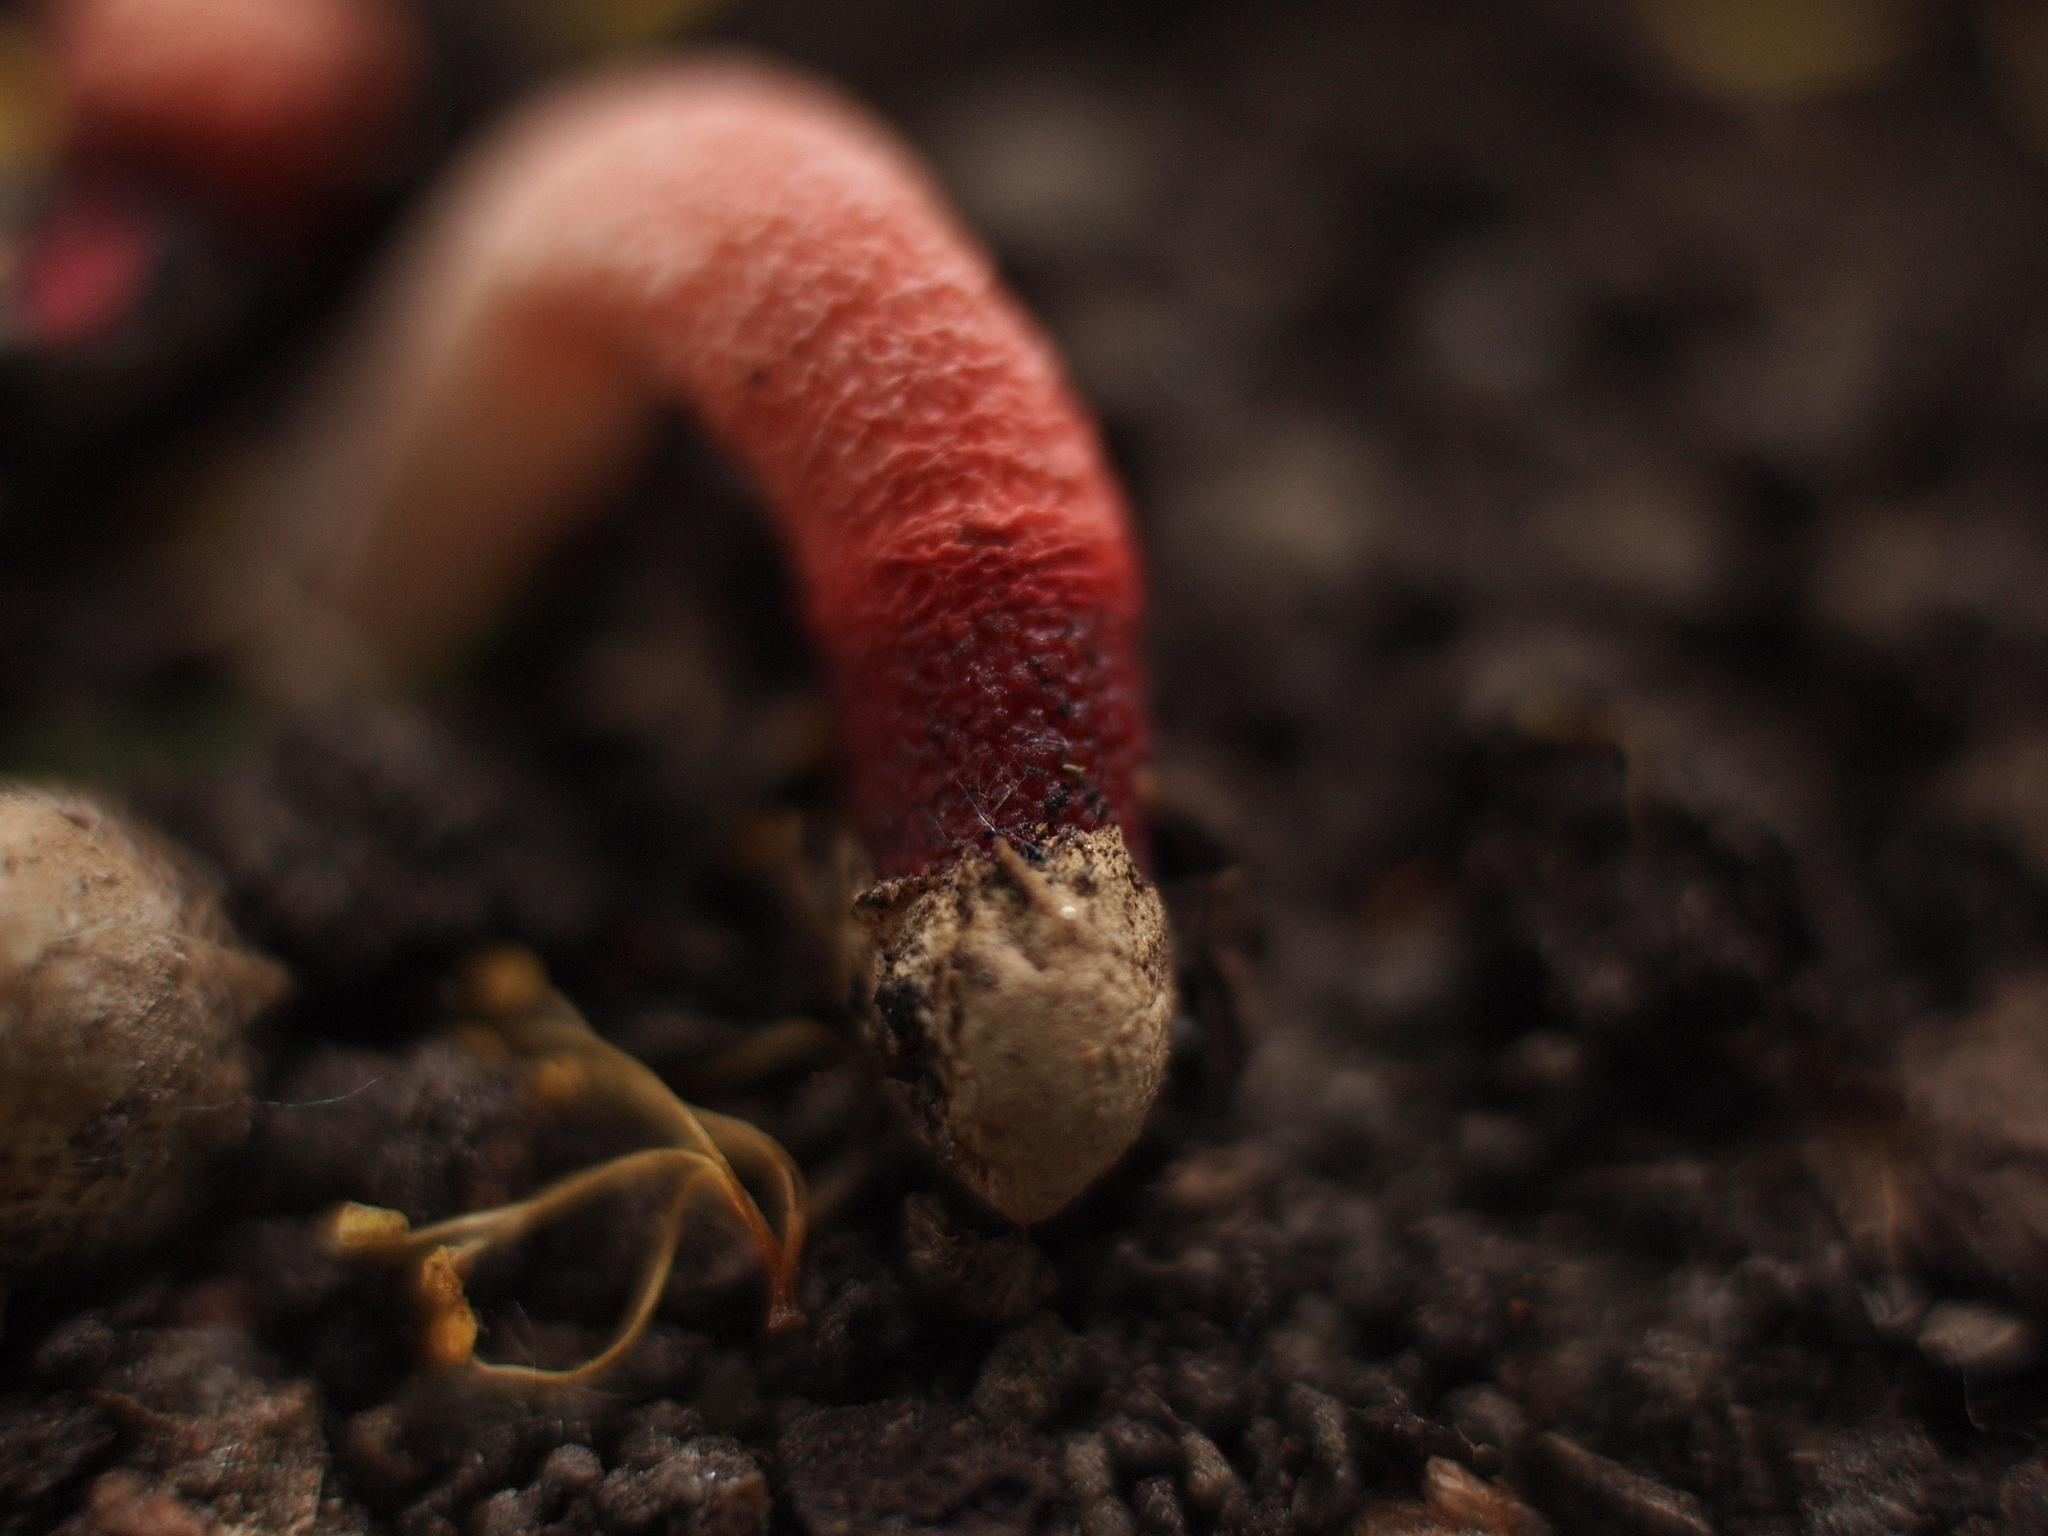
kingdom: Fungi
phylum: Basidiomycota
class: Agaricomycetes
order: Phallales
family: Phallaceae
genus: Mutinus
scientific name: Mutinus ravenelii
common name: Red stinkhorn
